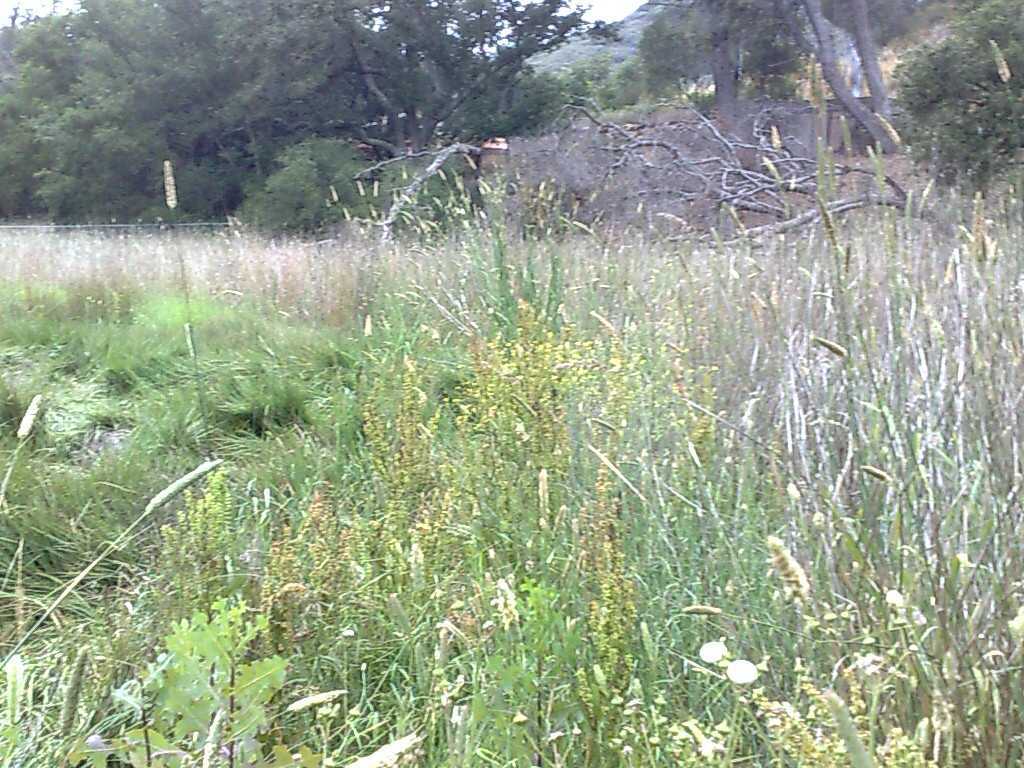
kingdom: Plantae
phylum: Tracheophyta
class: Liliopsida
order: Poales
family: Poaceae
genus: Phalaris
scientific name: Phalaris aquatica
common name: Bulbous canary-grass
